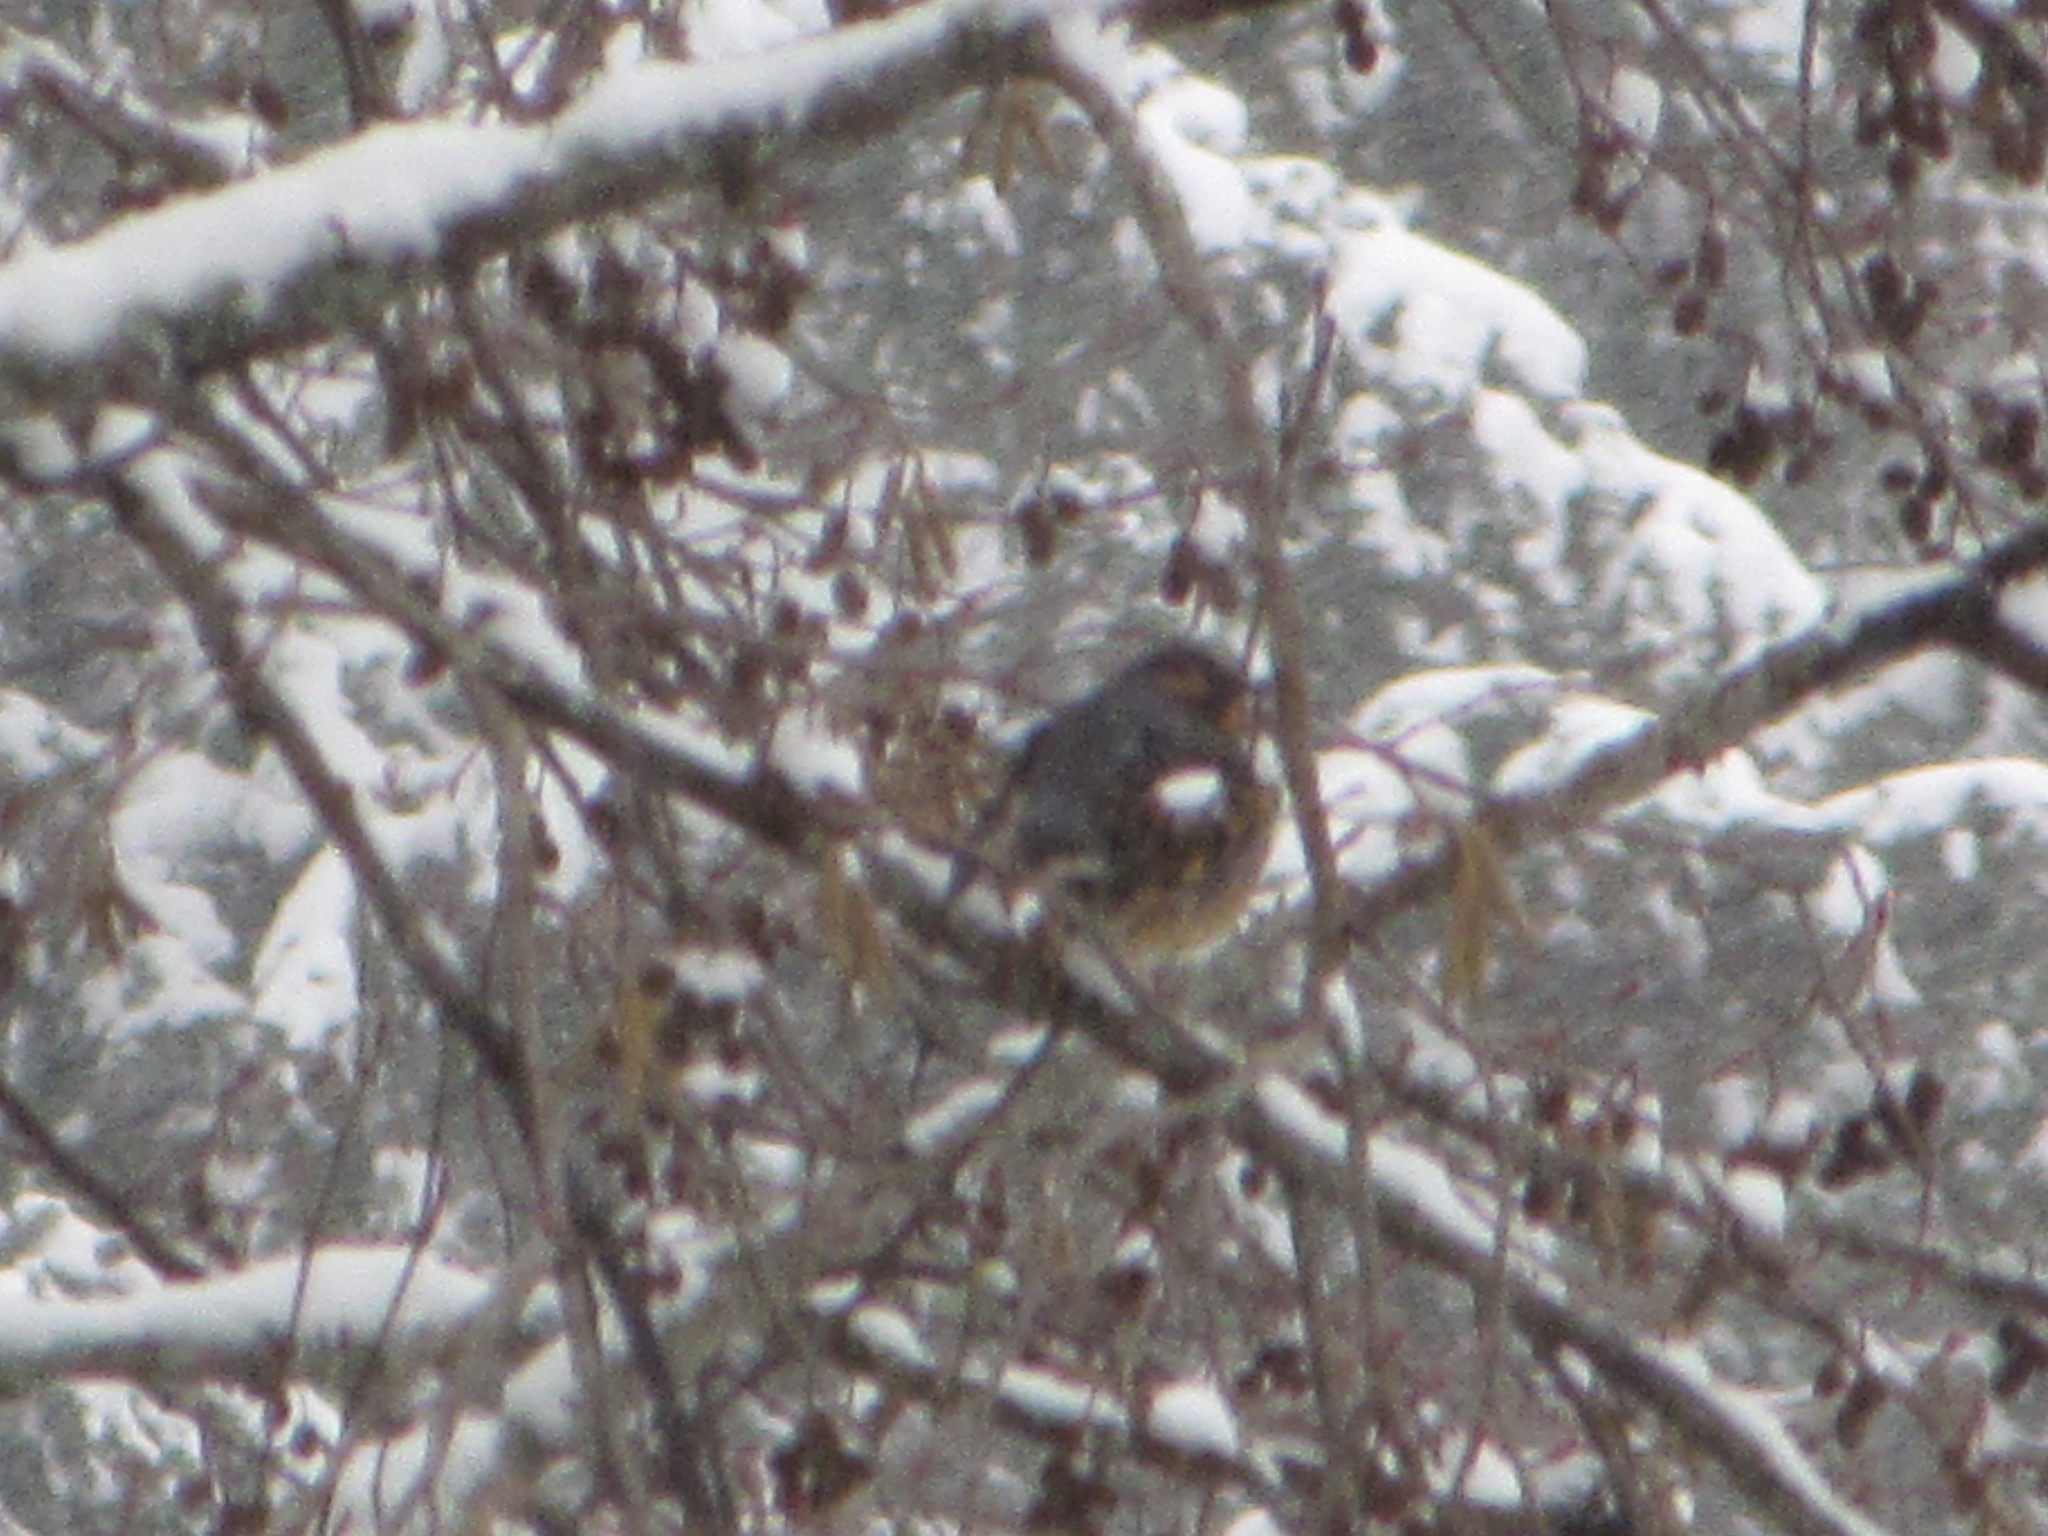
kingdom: Animalia
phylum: Chordata
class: Aves
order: Passeriformes
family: Turdidae
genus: Ixoreus
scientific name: Ixoreus naevius
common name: Varied thrush
